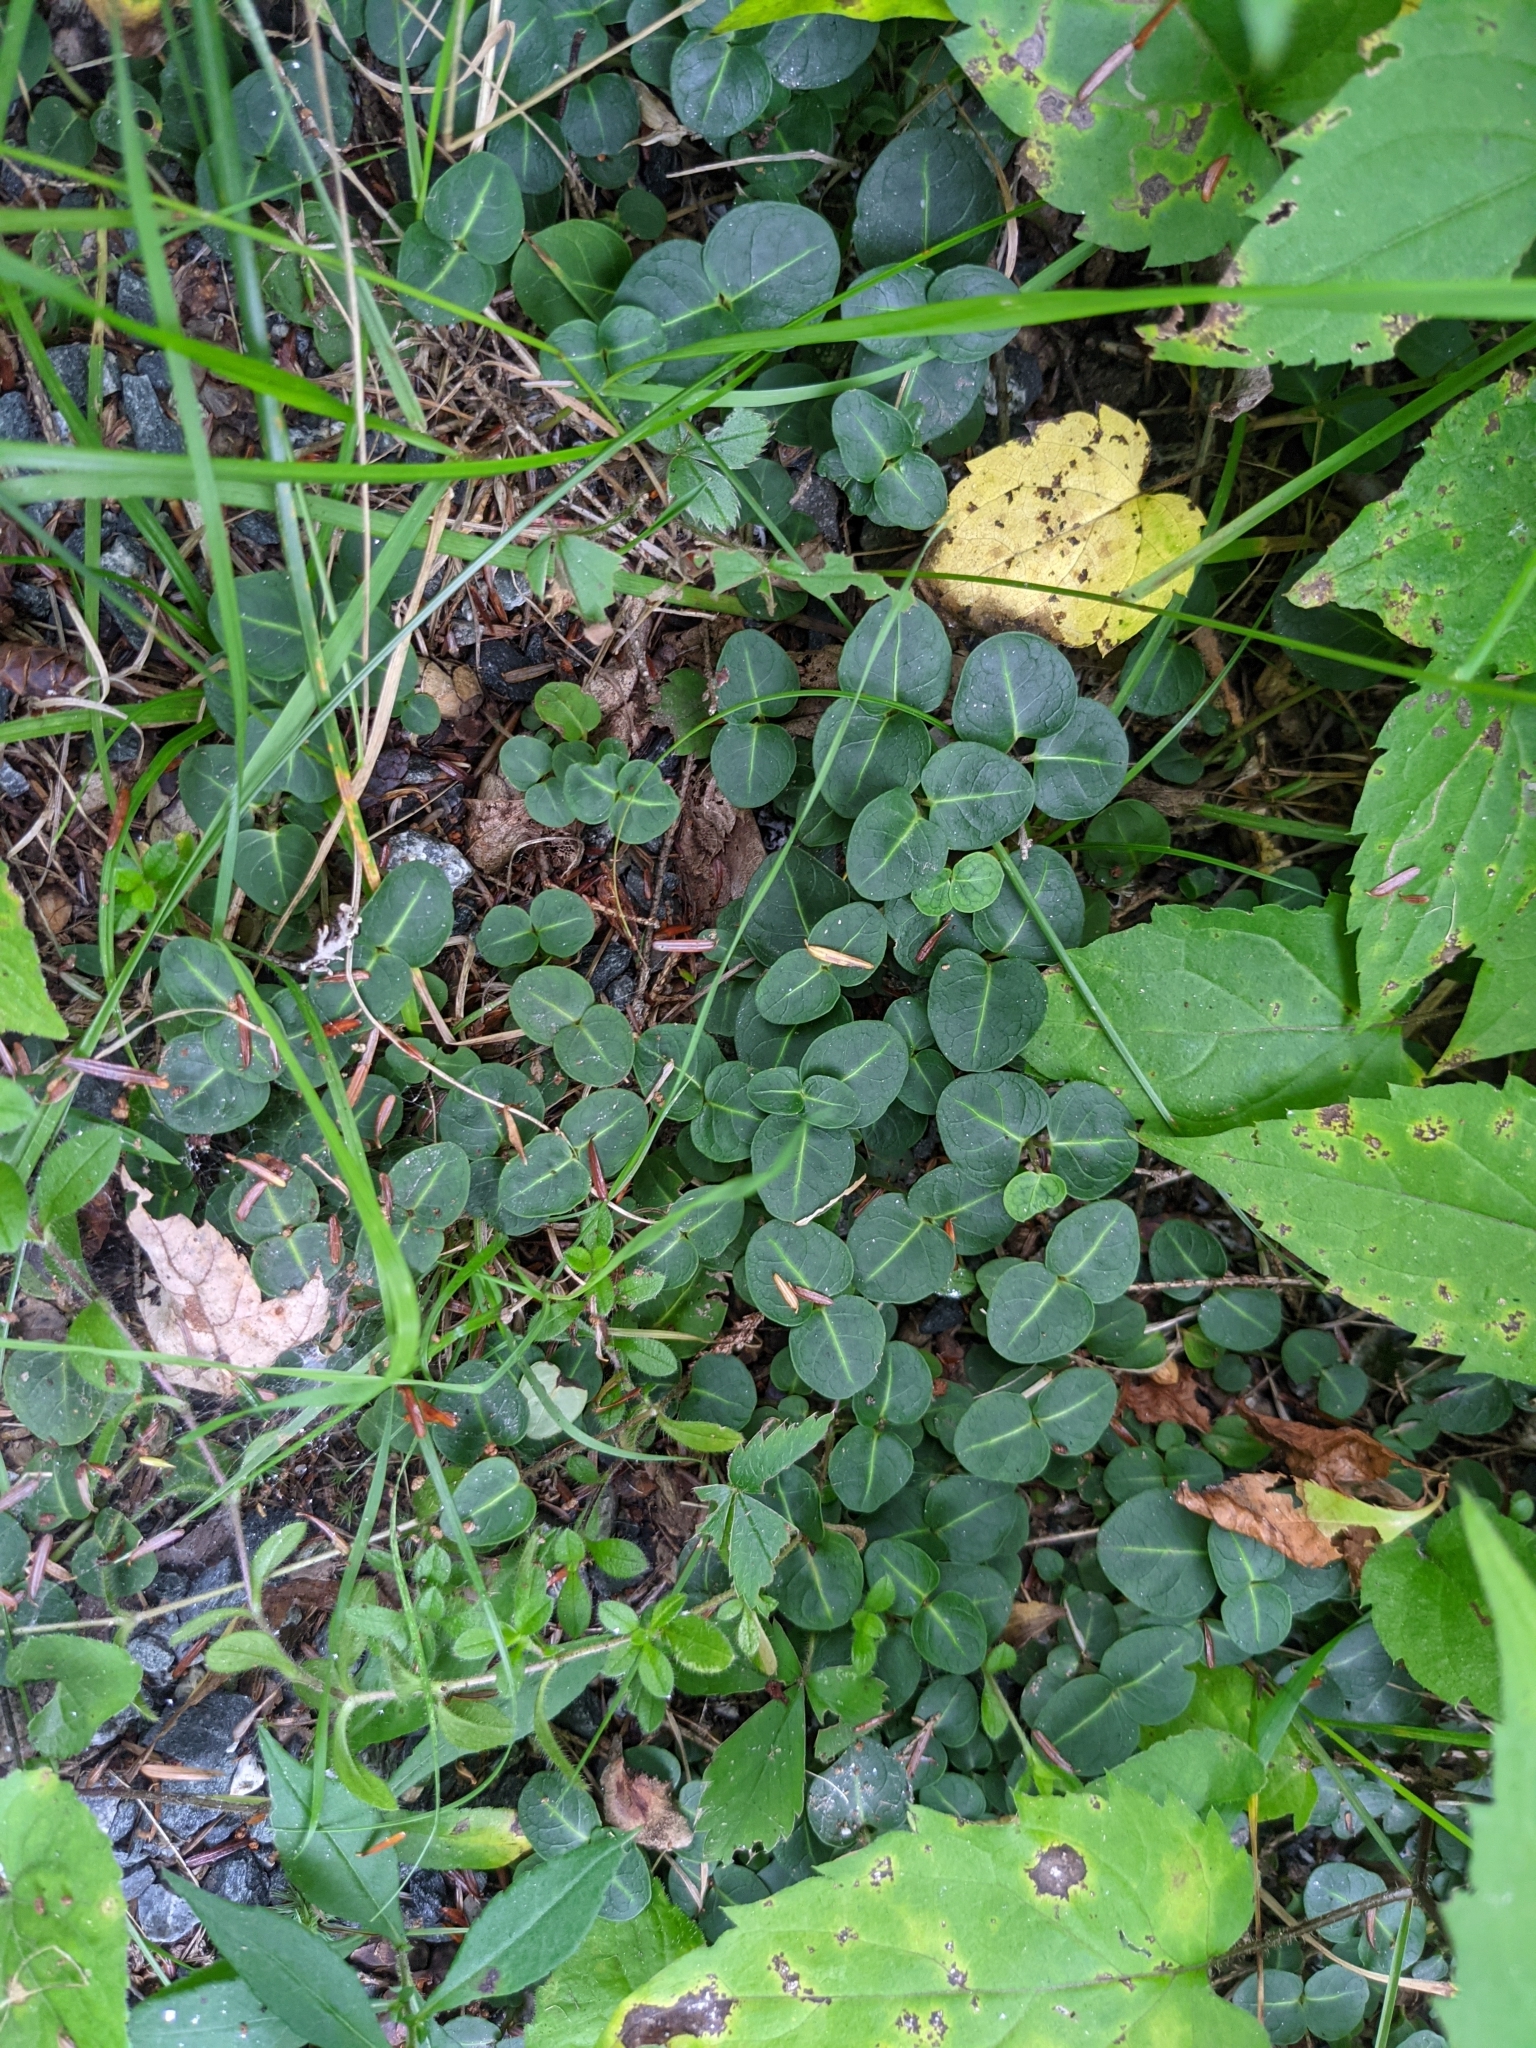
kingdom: Plantae
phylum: Tracheophyta
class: Magnoliopsida
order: Gentianales
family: Rubiaceae
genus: Mitchella
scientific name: Mitchella repens
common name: Partridge-berry
